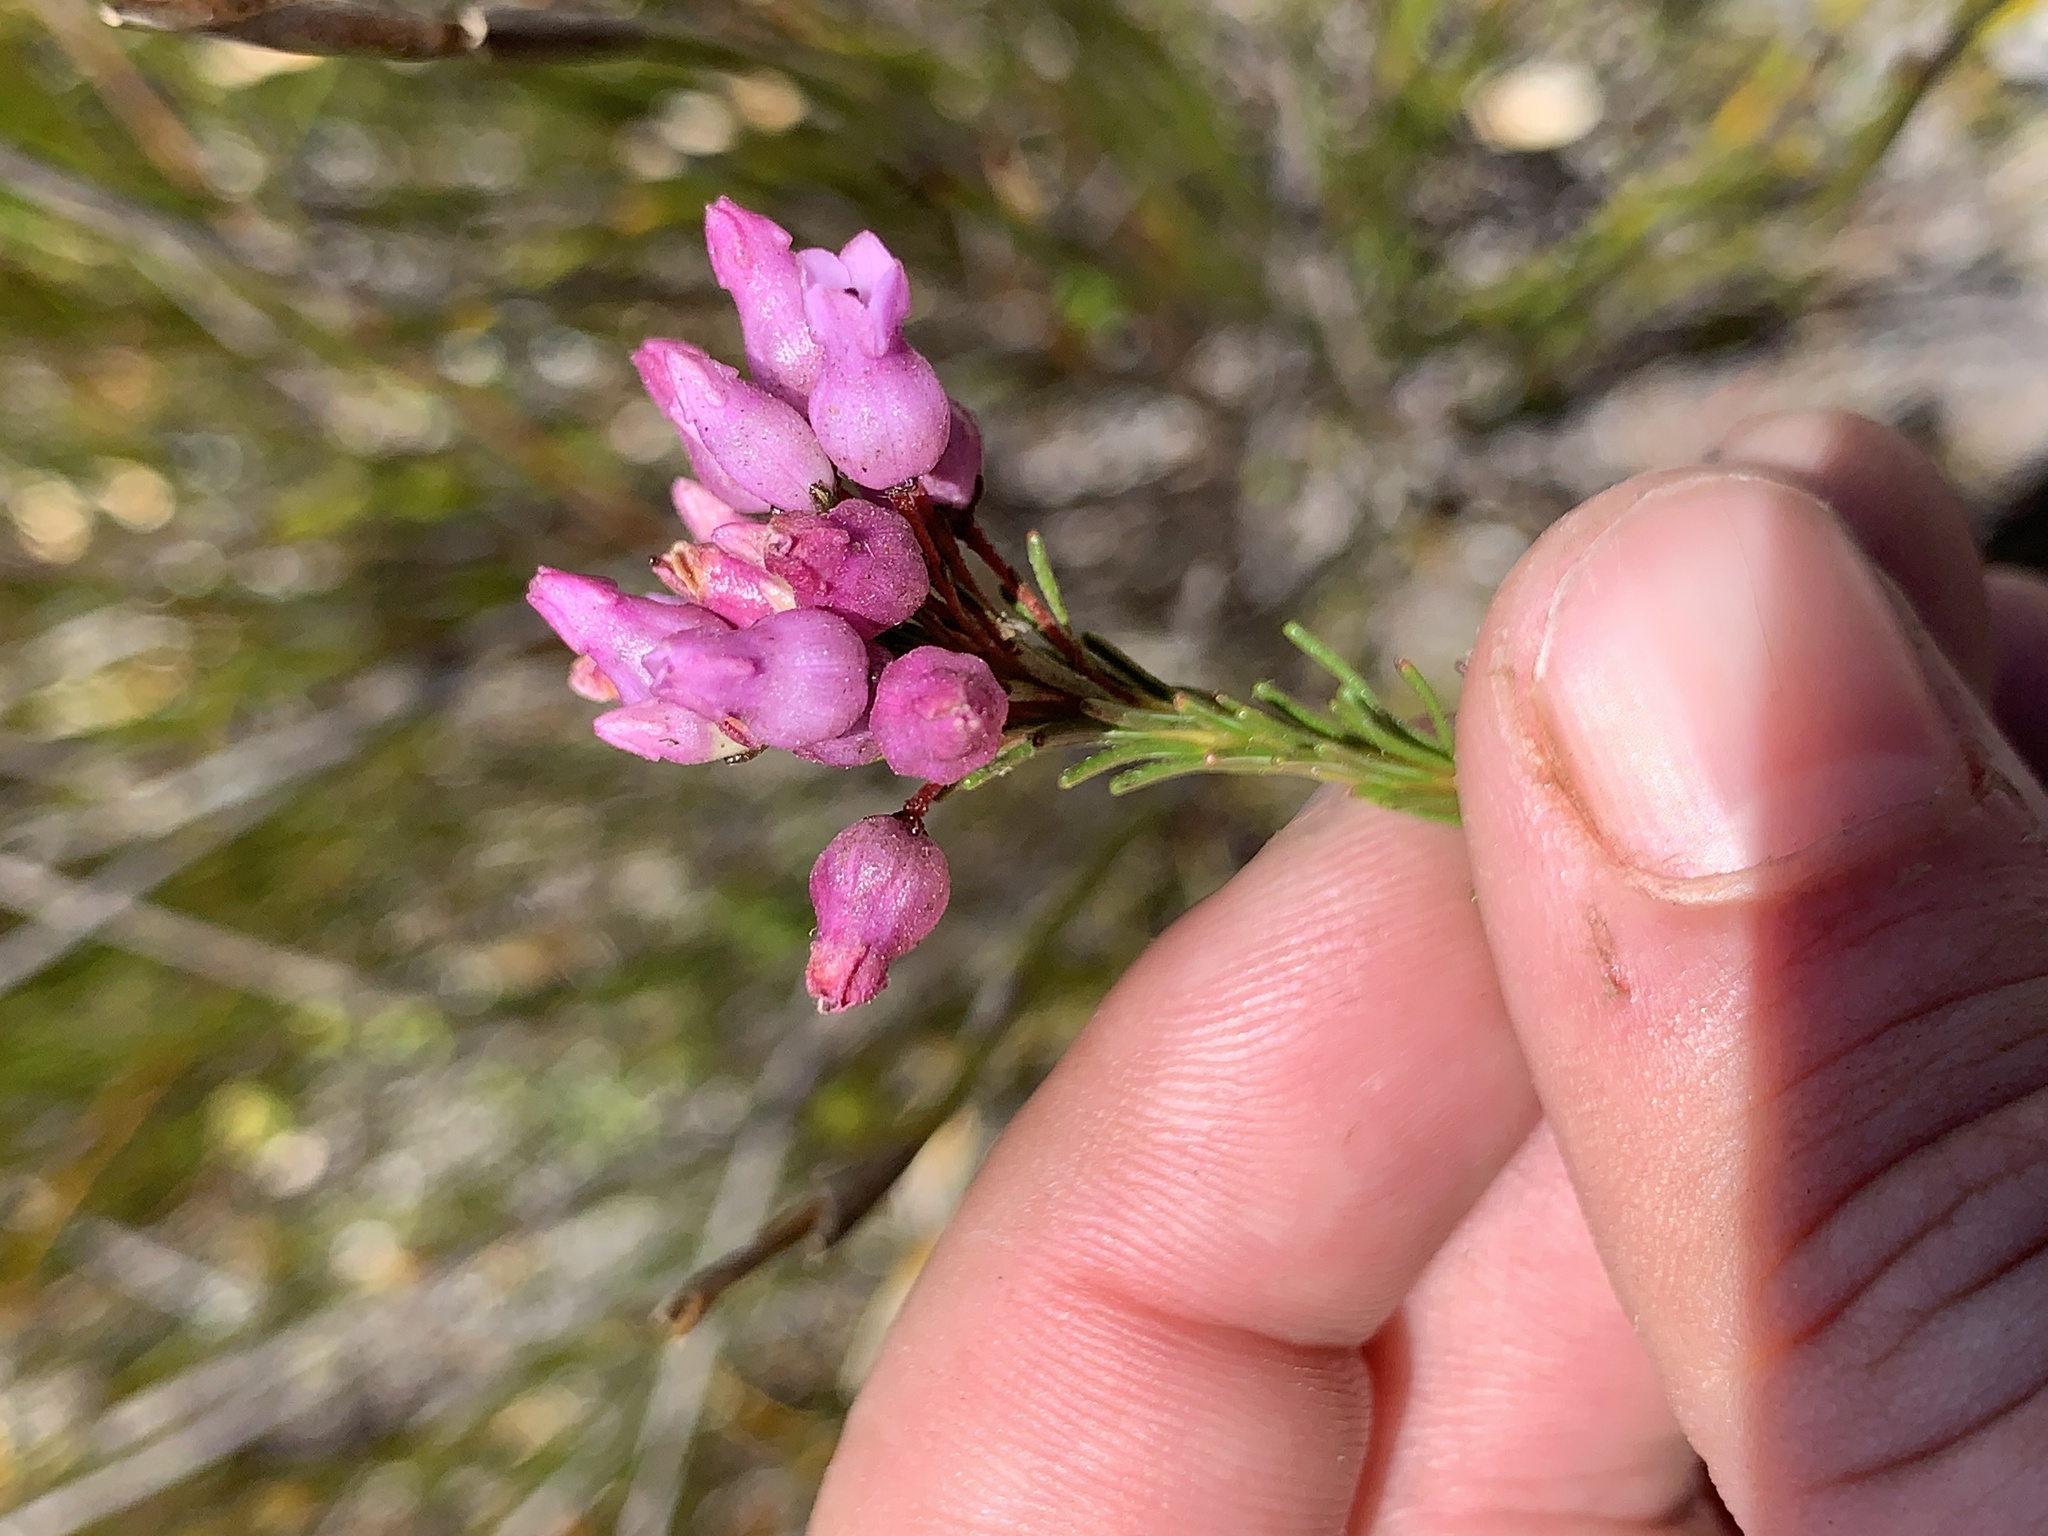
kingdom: Plantae
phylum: Tracheophyta
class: Magnoliopsida
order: Ericales
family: Ericaceae
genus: Erica
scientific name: Erica obliqua
